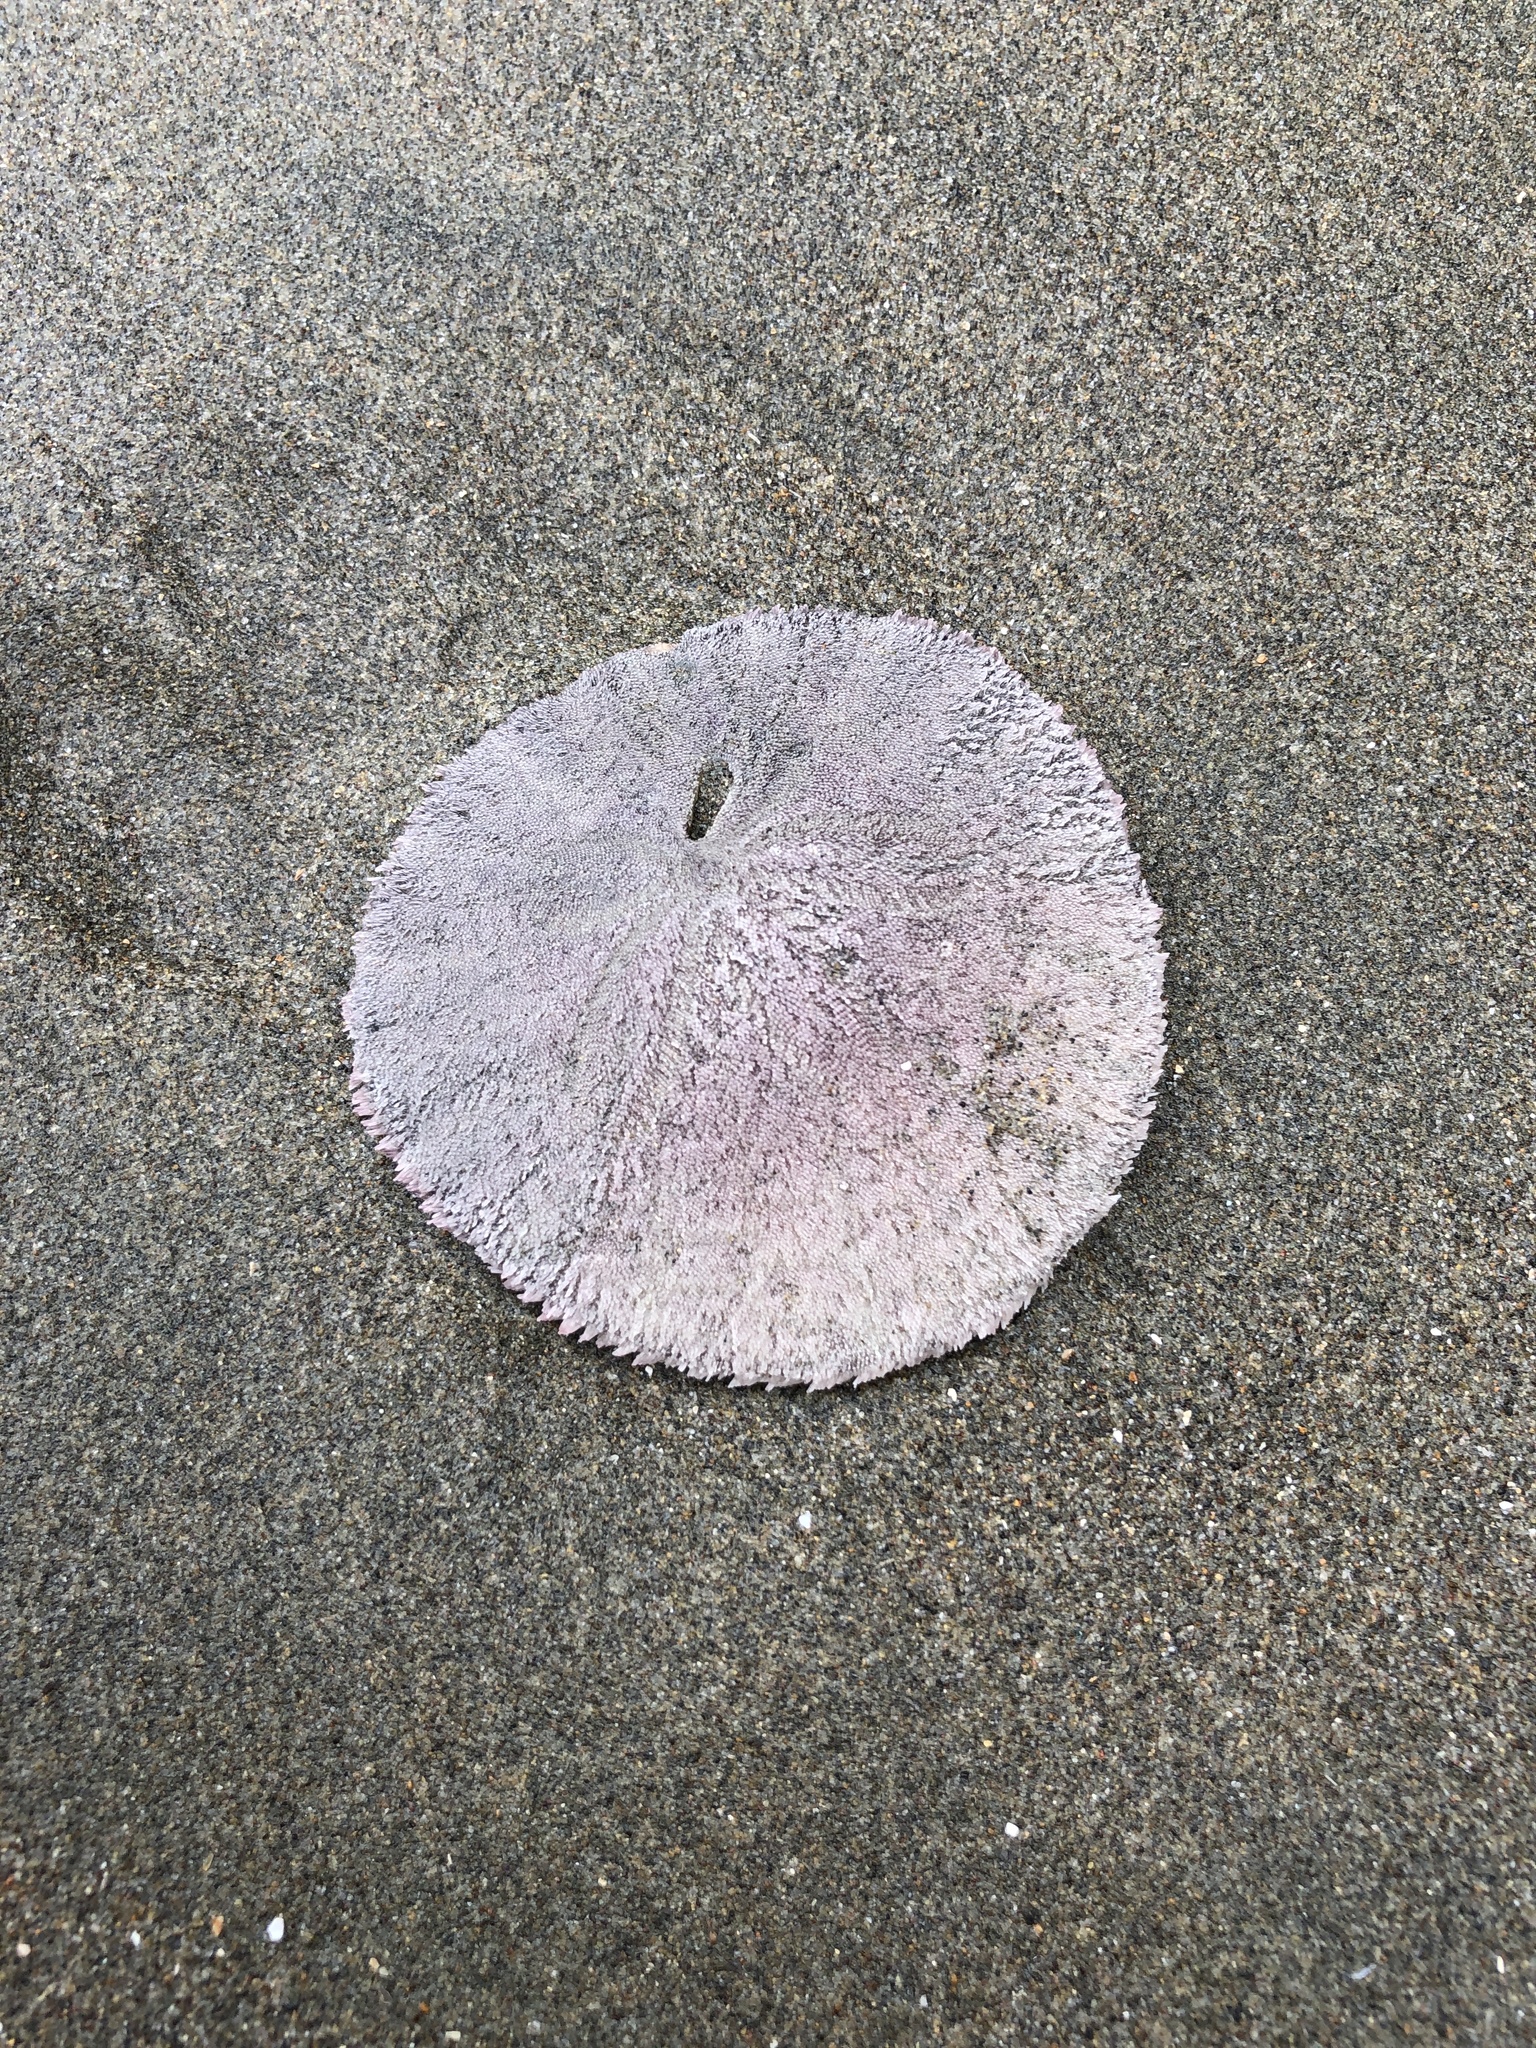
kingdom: Animalia
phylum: Echinodermata
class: Echinoidea
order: Echinolampadacea
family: Dendrasteridae
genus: Dendraster
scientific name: Dendraster excentricus
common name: Eccentric sand dollar sea urchin
